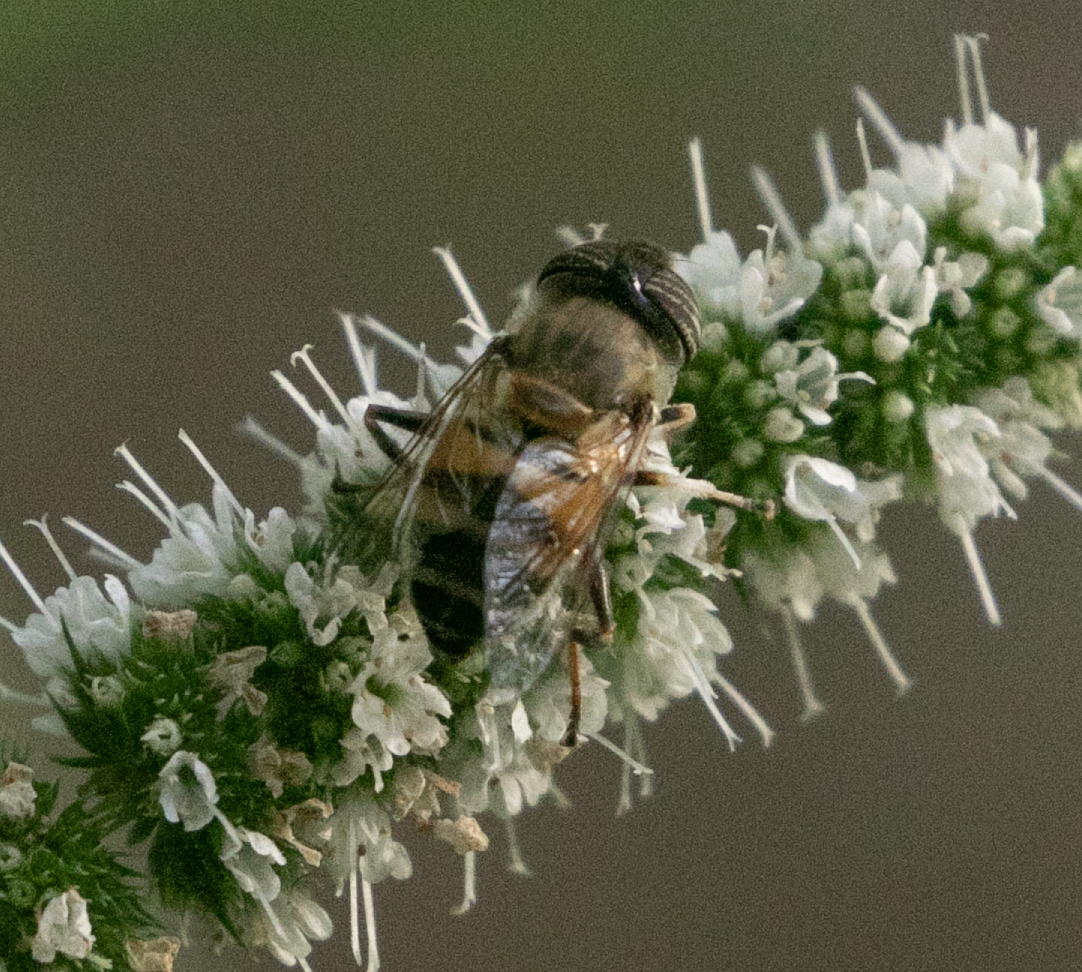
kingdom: Animalia
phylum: Arthropoda
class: Insecta
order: Diptera
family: Syrphidae
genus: Eristalinus
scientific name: Eristalinus taeniops
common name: Syrphid fly
